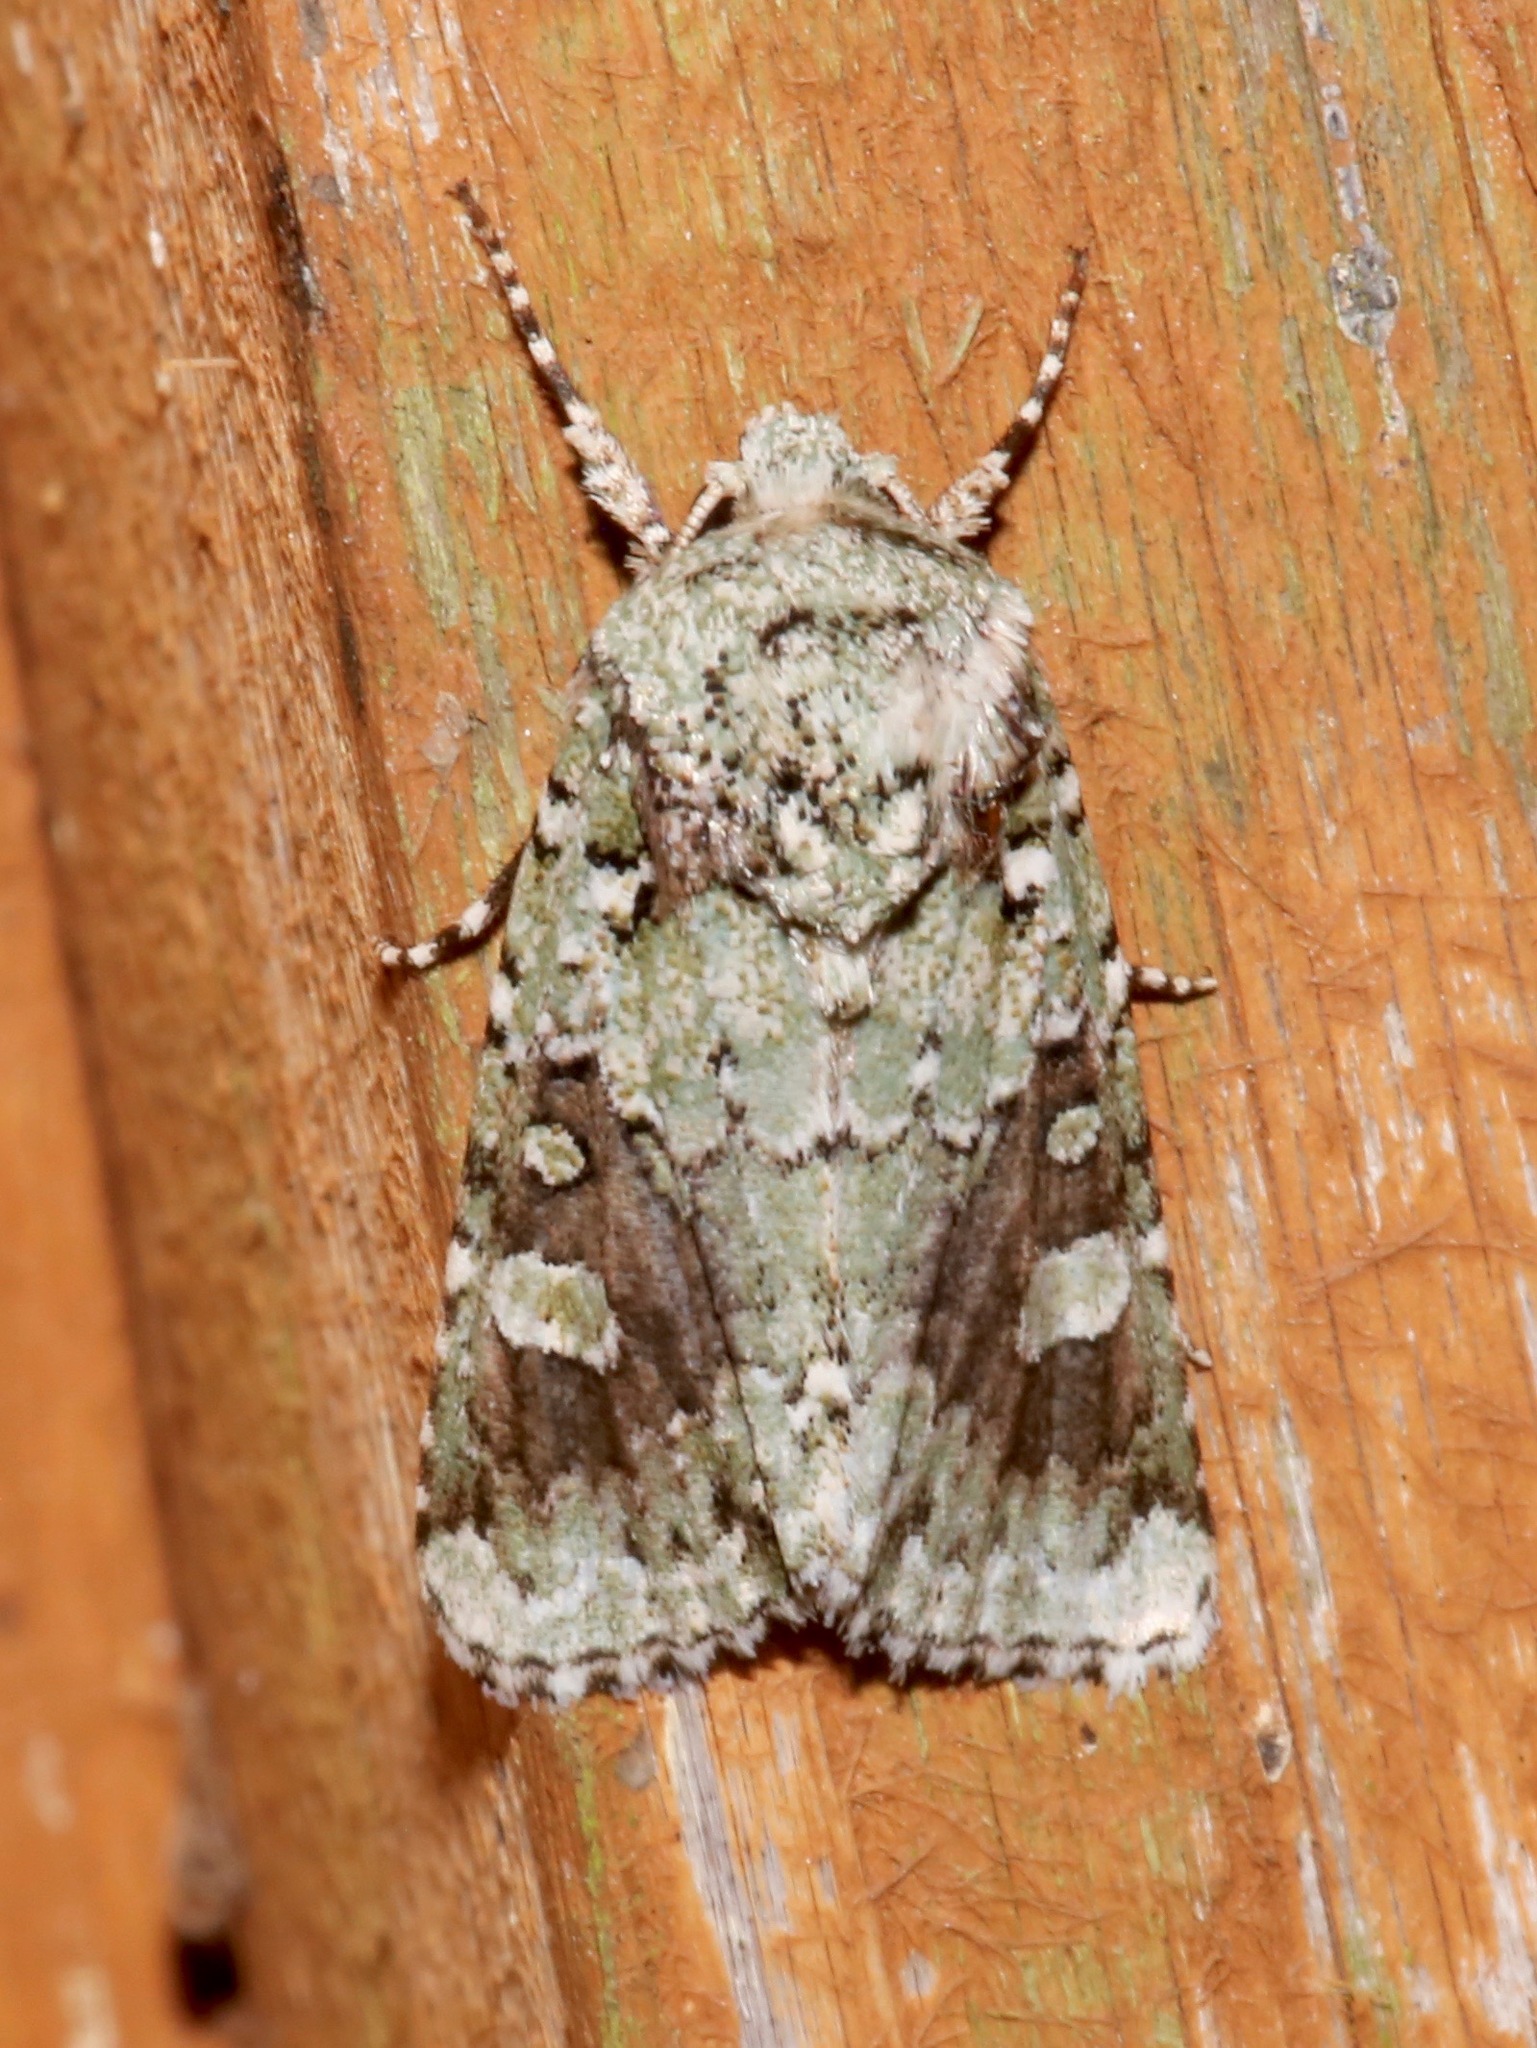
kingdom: Animalia
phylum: Arthropoda
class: Insecta
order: Lepidoptera
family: Noctuidae
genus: Lacinipolia
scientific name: Lacinipolia laudabilis
